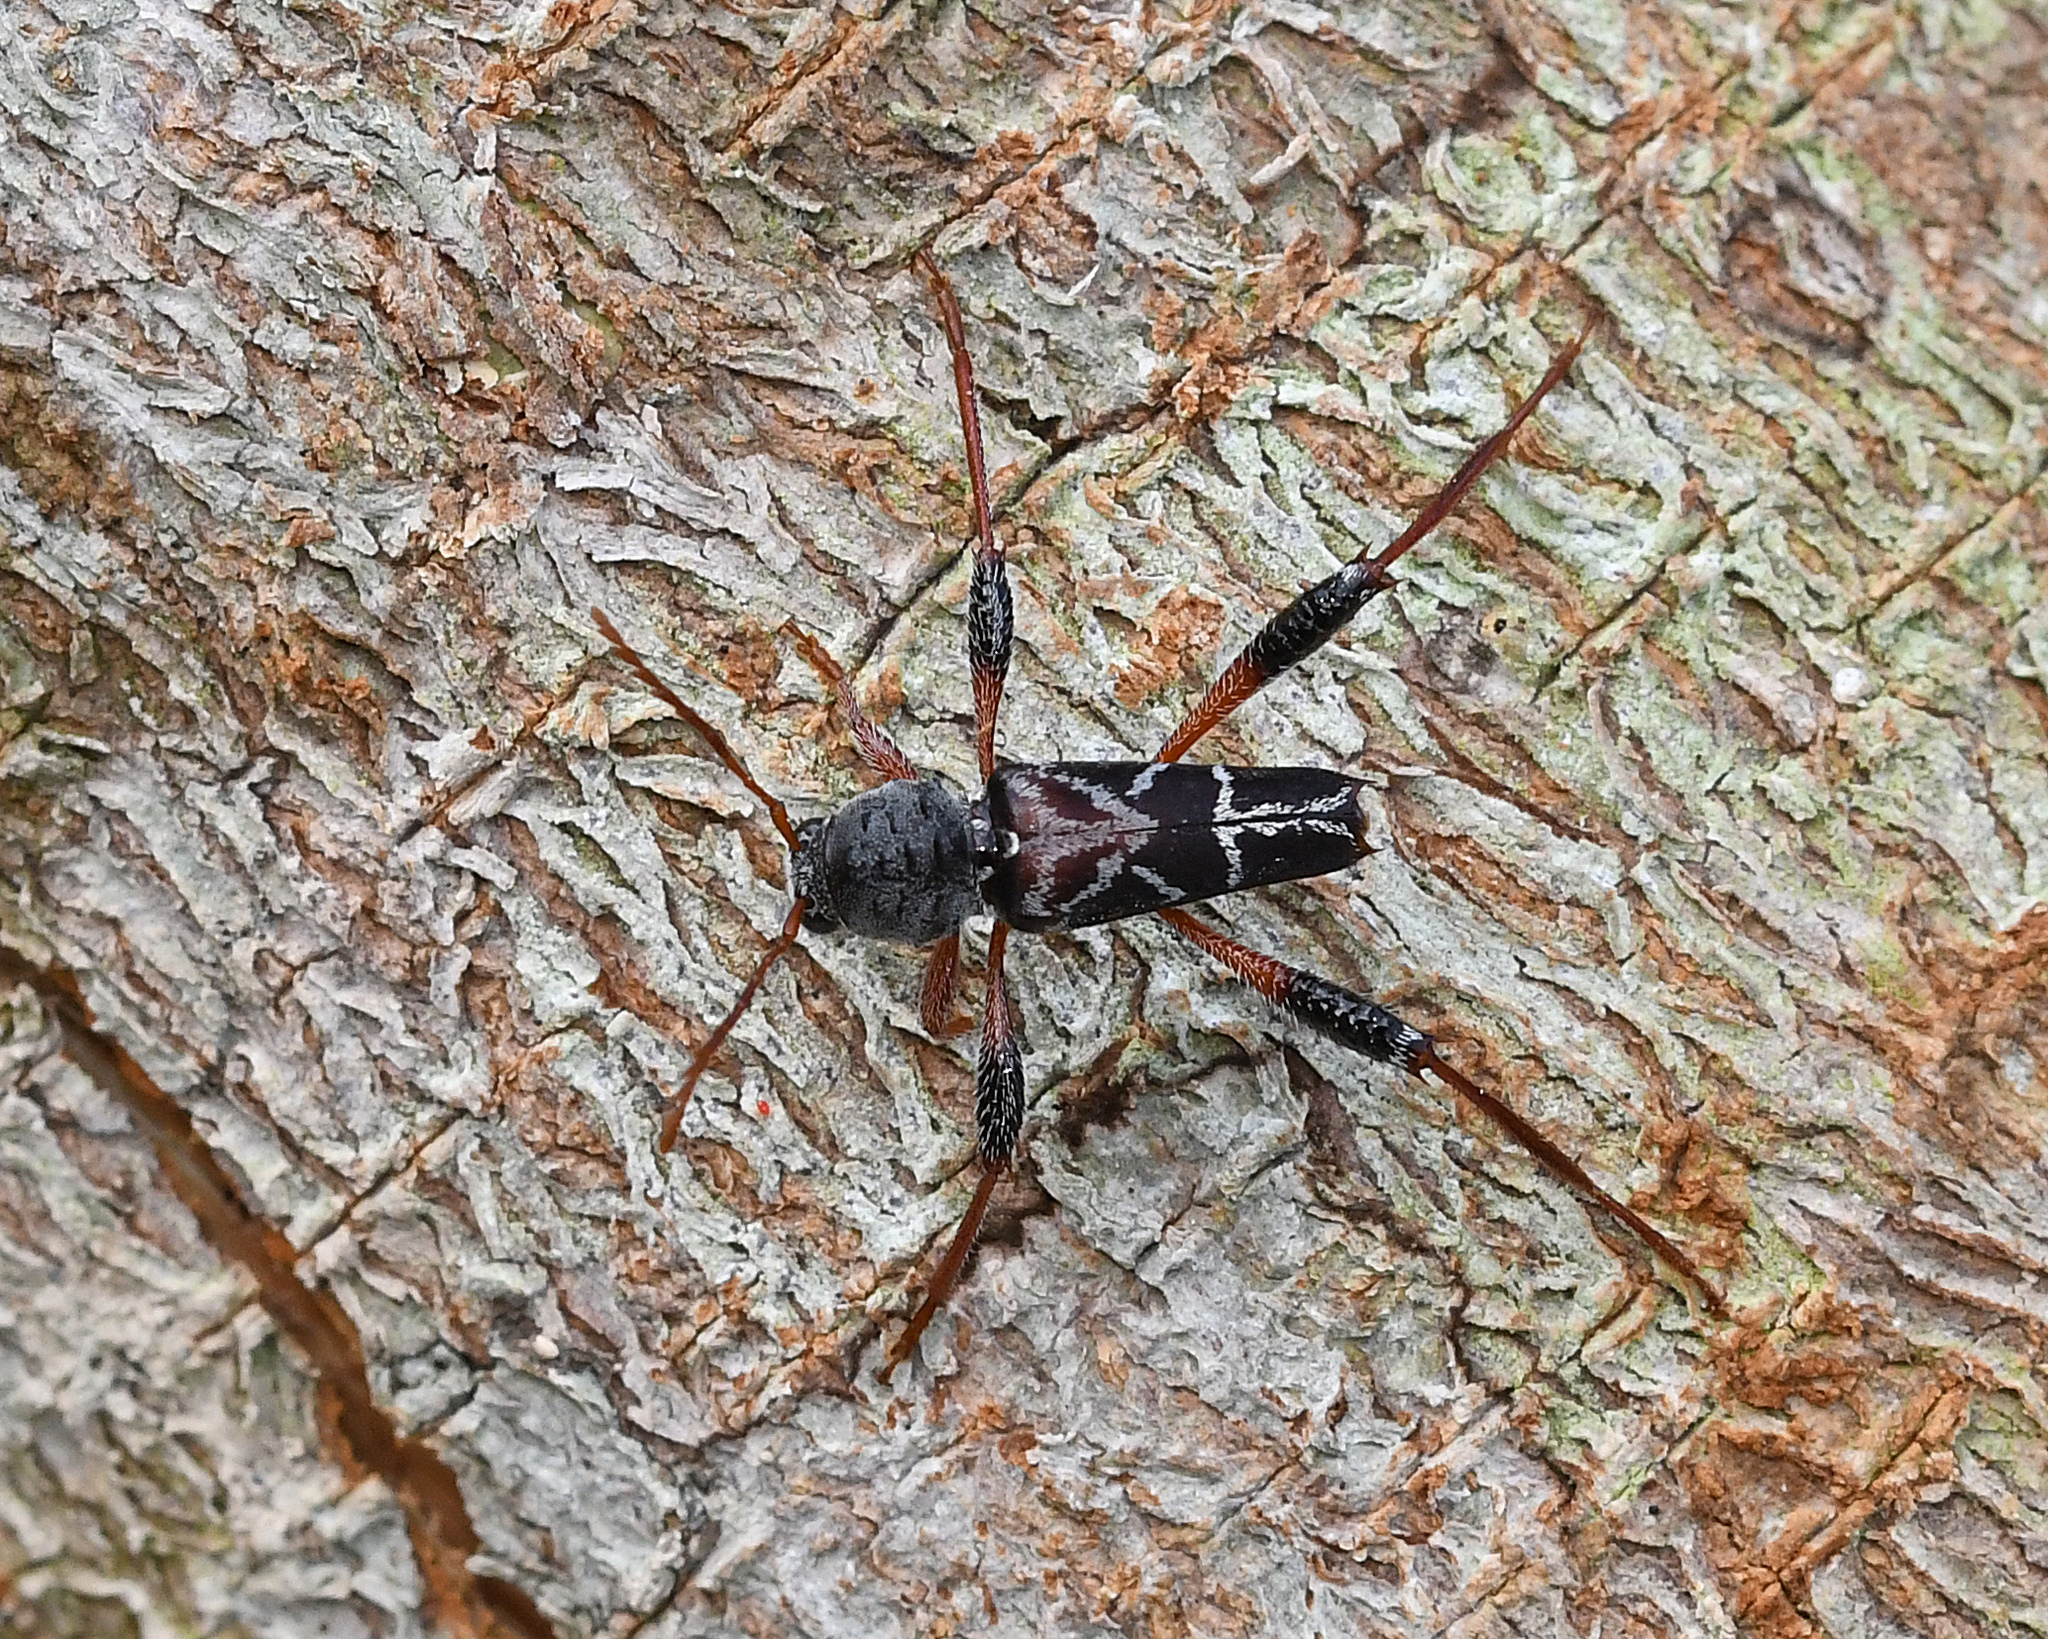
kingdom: Animalia
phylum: Arthropoda
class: Insecta
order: Coleoptera
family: Cerambycidae
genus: Neoclytus
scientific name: Neoclytus araneiformis
